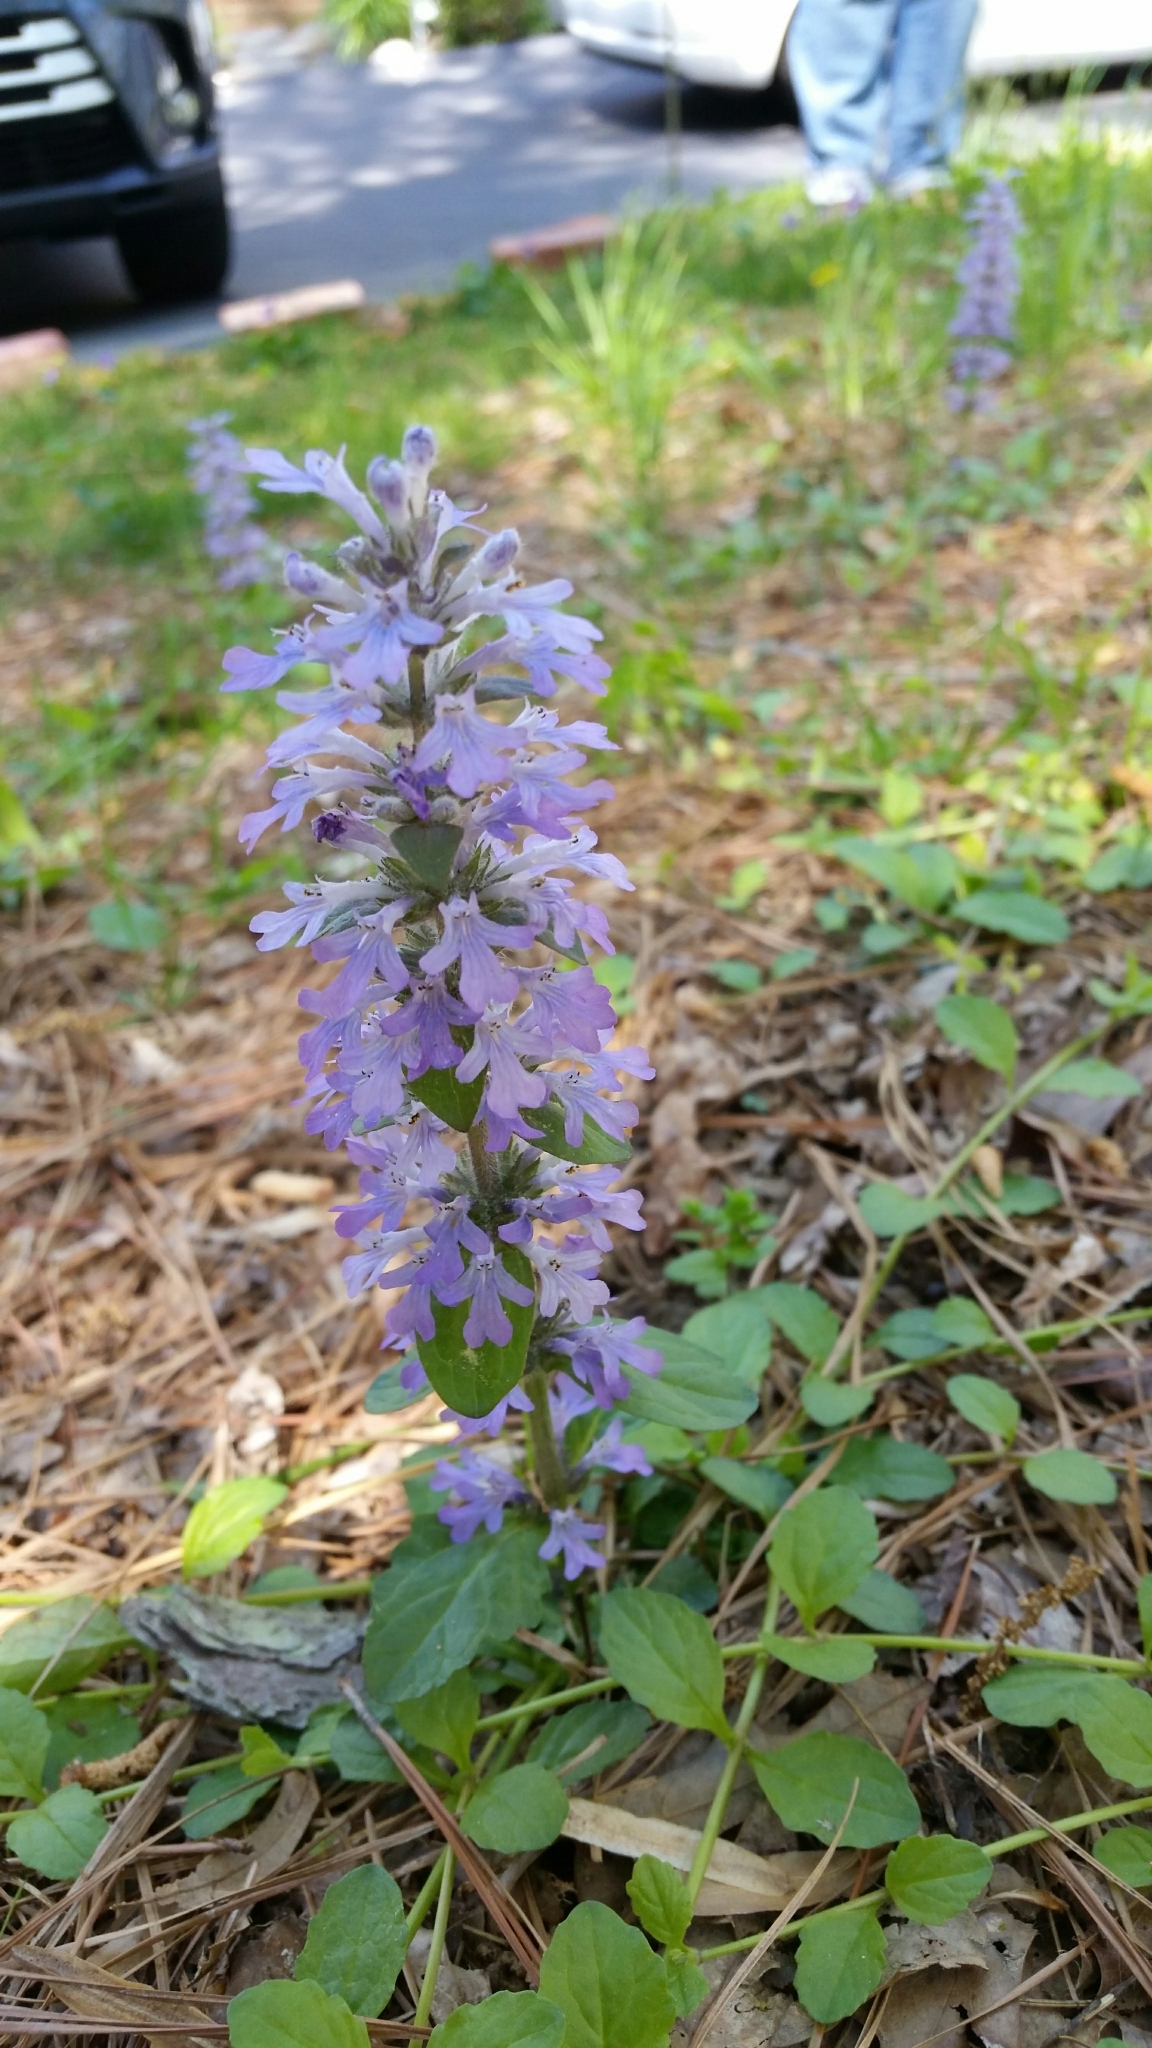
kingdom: Plantae
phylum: Tracheophyta
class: Magnoliopsida
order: Lamiales
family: Lamiaceae
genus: Ajuga
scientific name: Ajuga reptans
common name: Bugle
